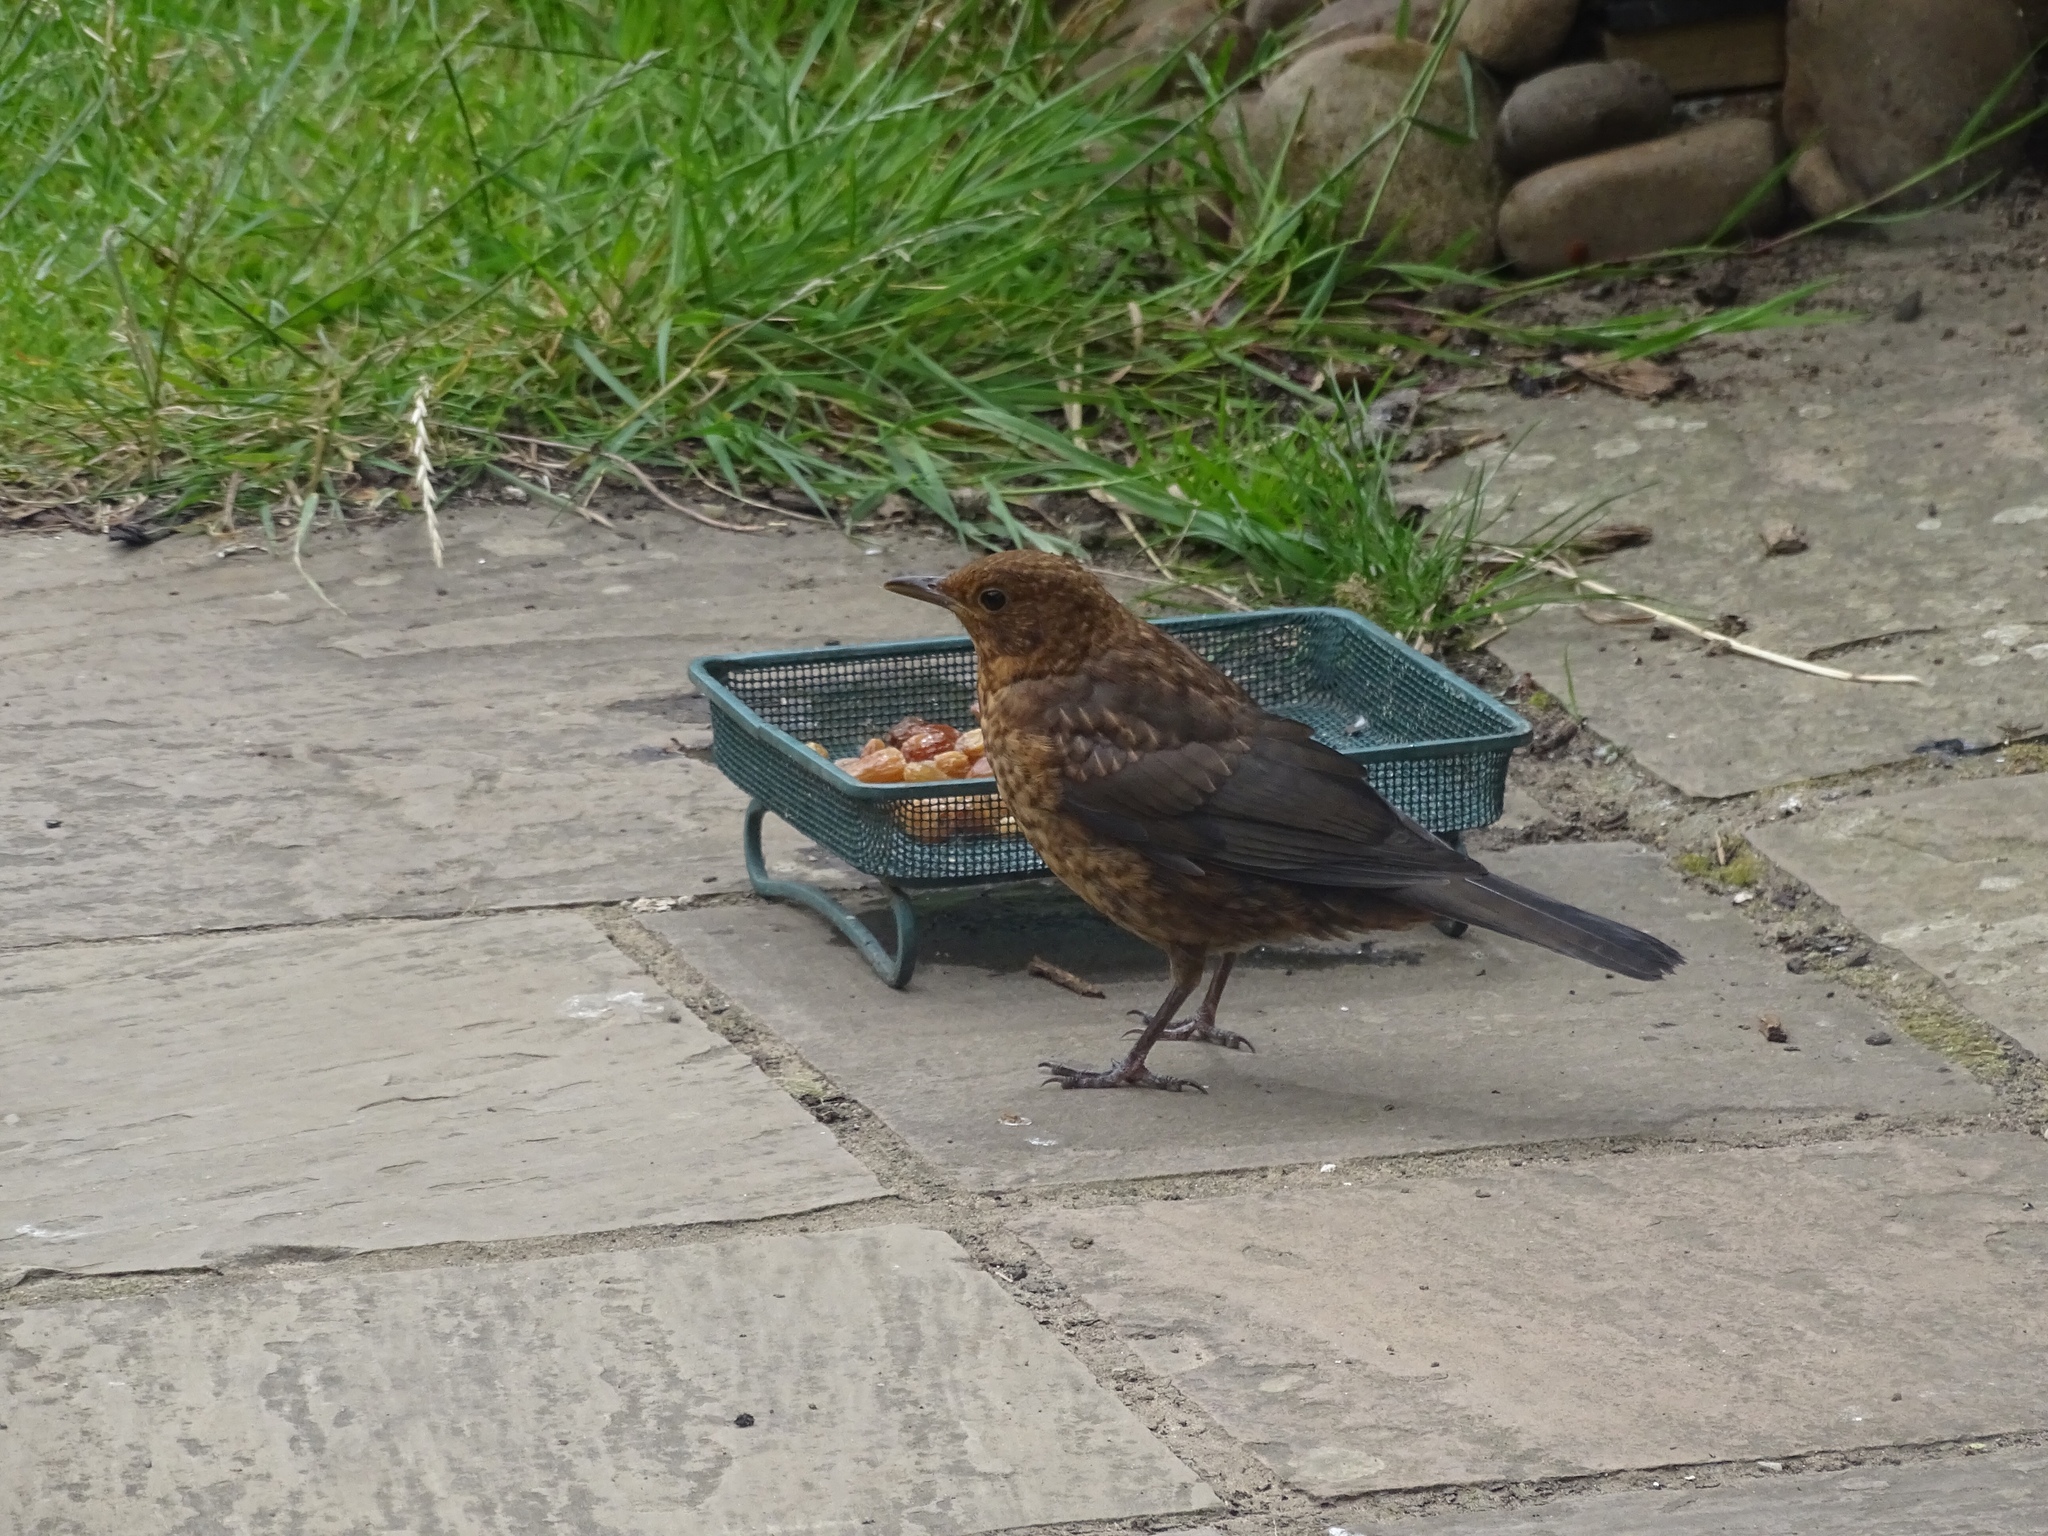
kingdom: Animalia
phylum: Chordata
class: Aves
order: Passeriformes
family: Turdidae
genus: Turdus
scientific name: Turdus merula
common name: Common blackbird
